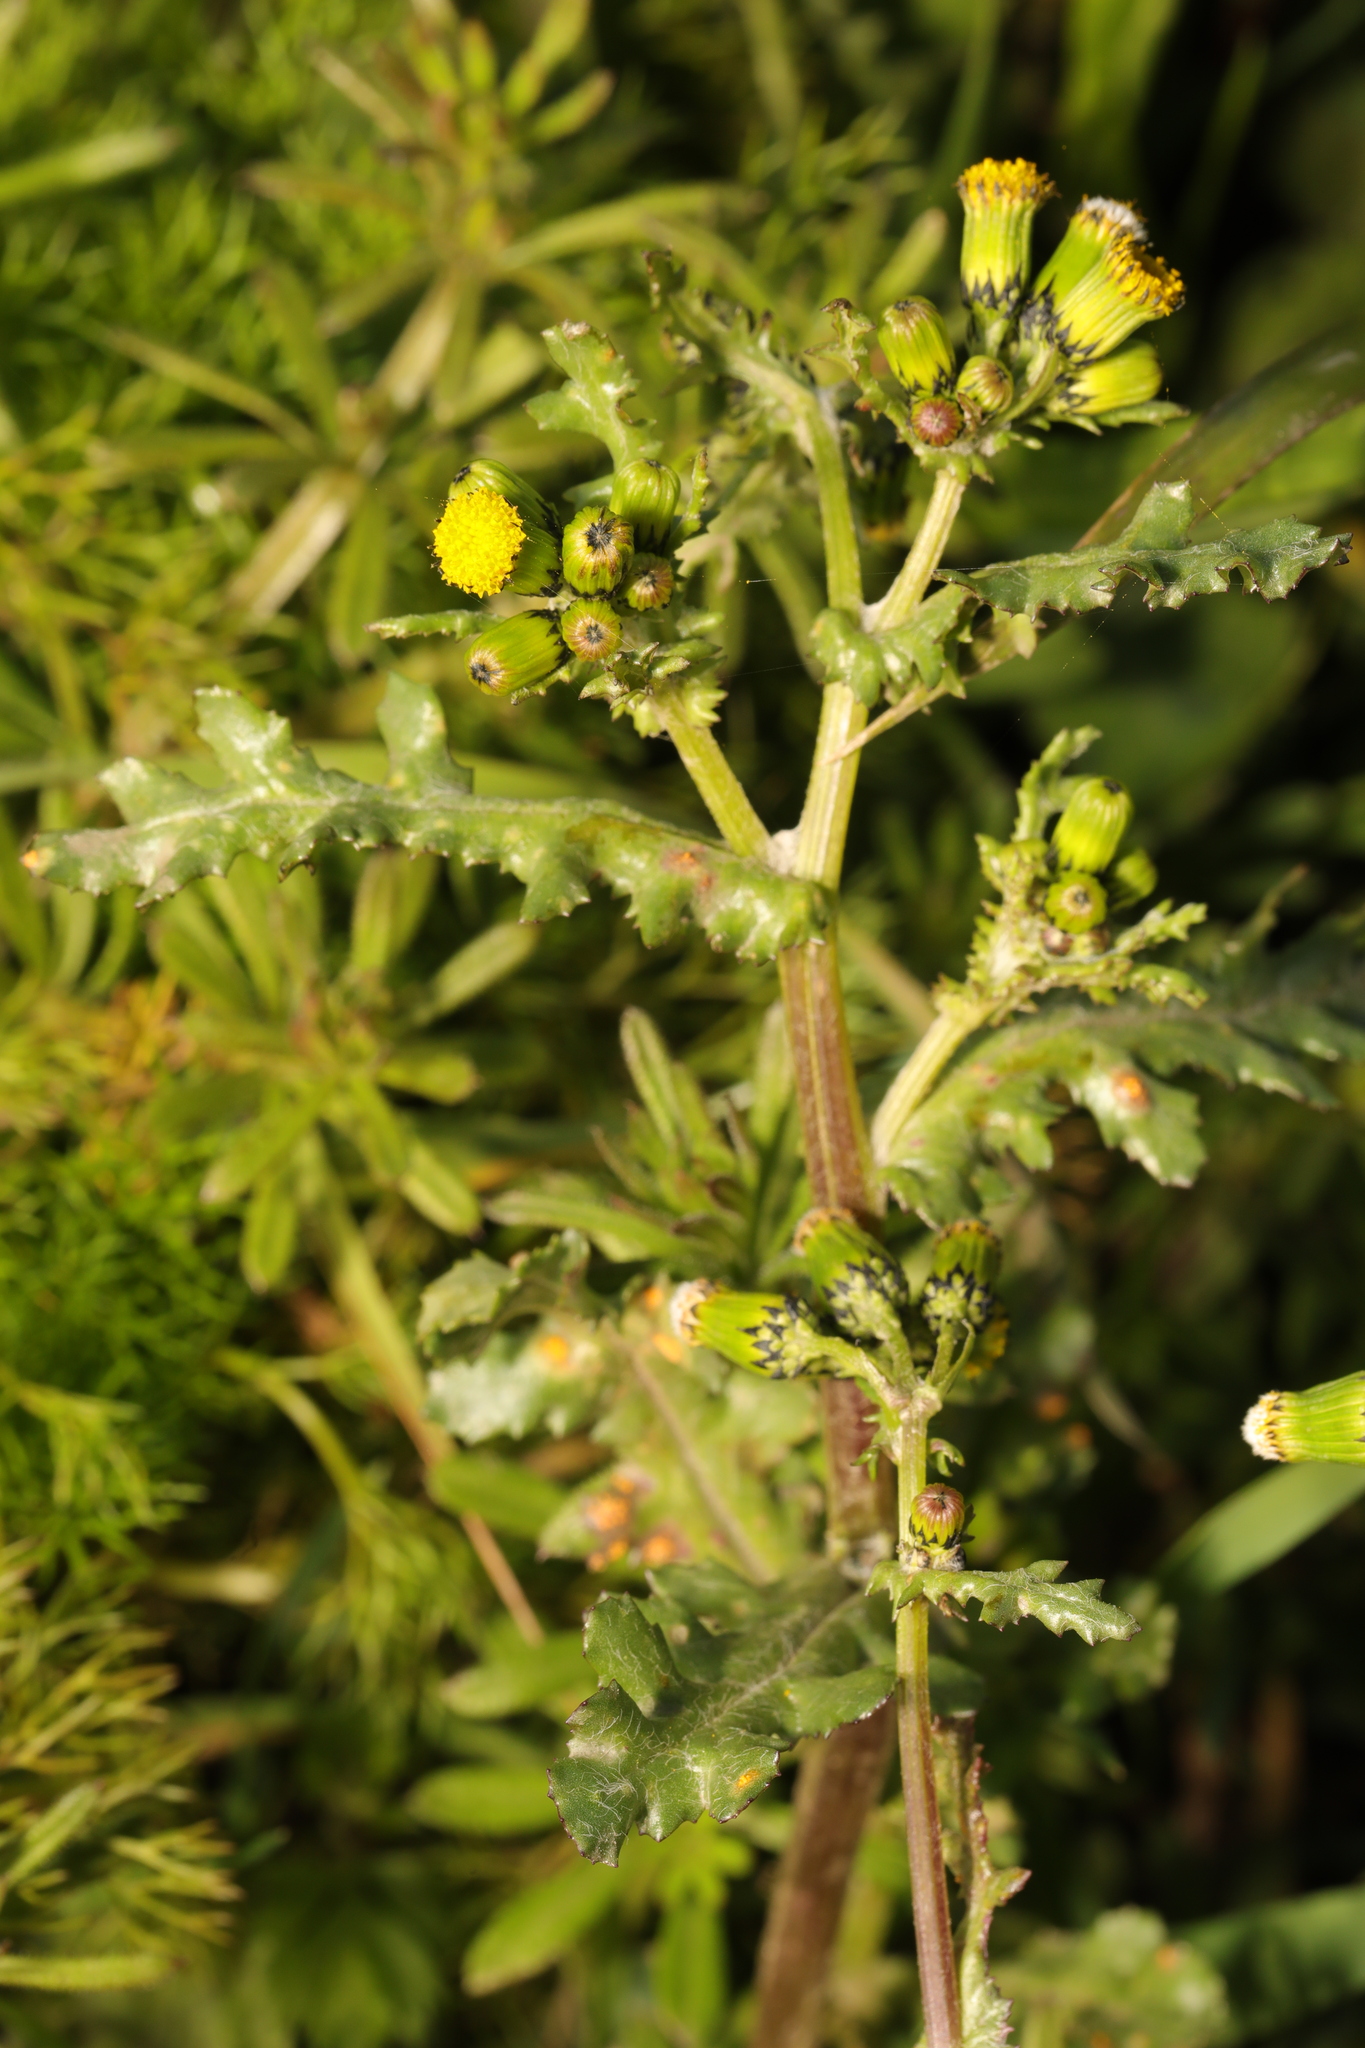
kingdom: Plantae
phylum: Tracheophyta
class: Magnoliopsida
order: Asterales
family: Asteraceae
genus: Senecio
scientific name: Senecio vulgaris
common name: Old-man-in-the-spring
